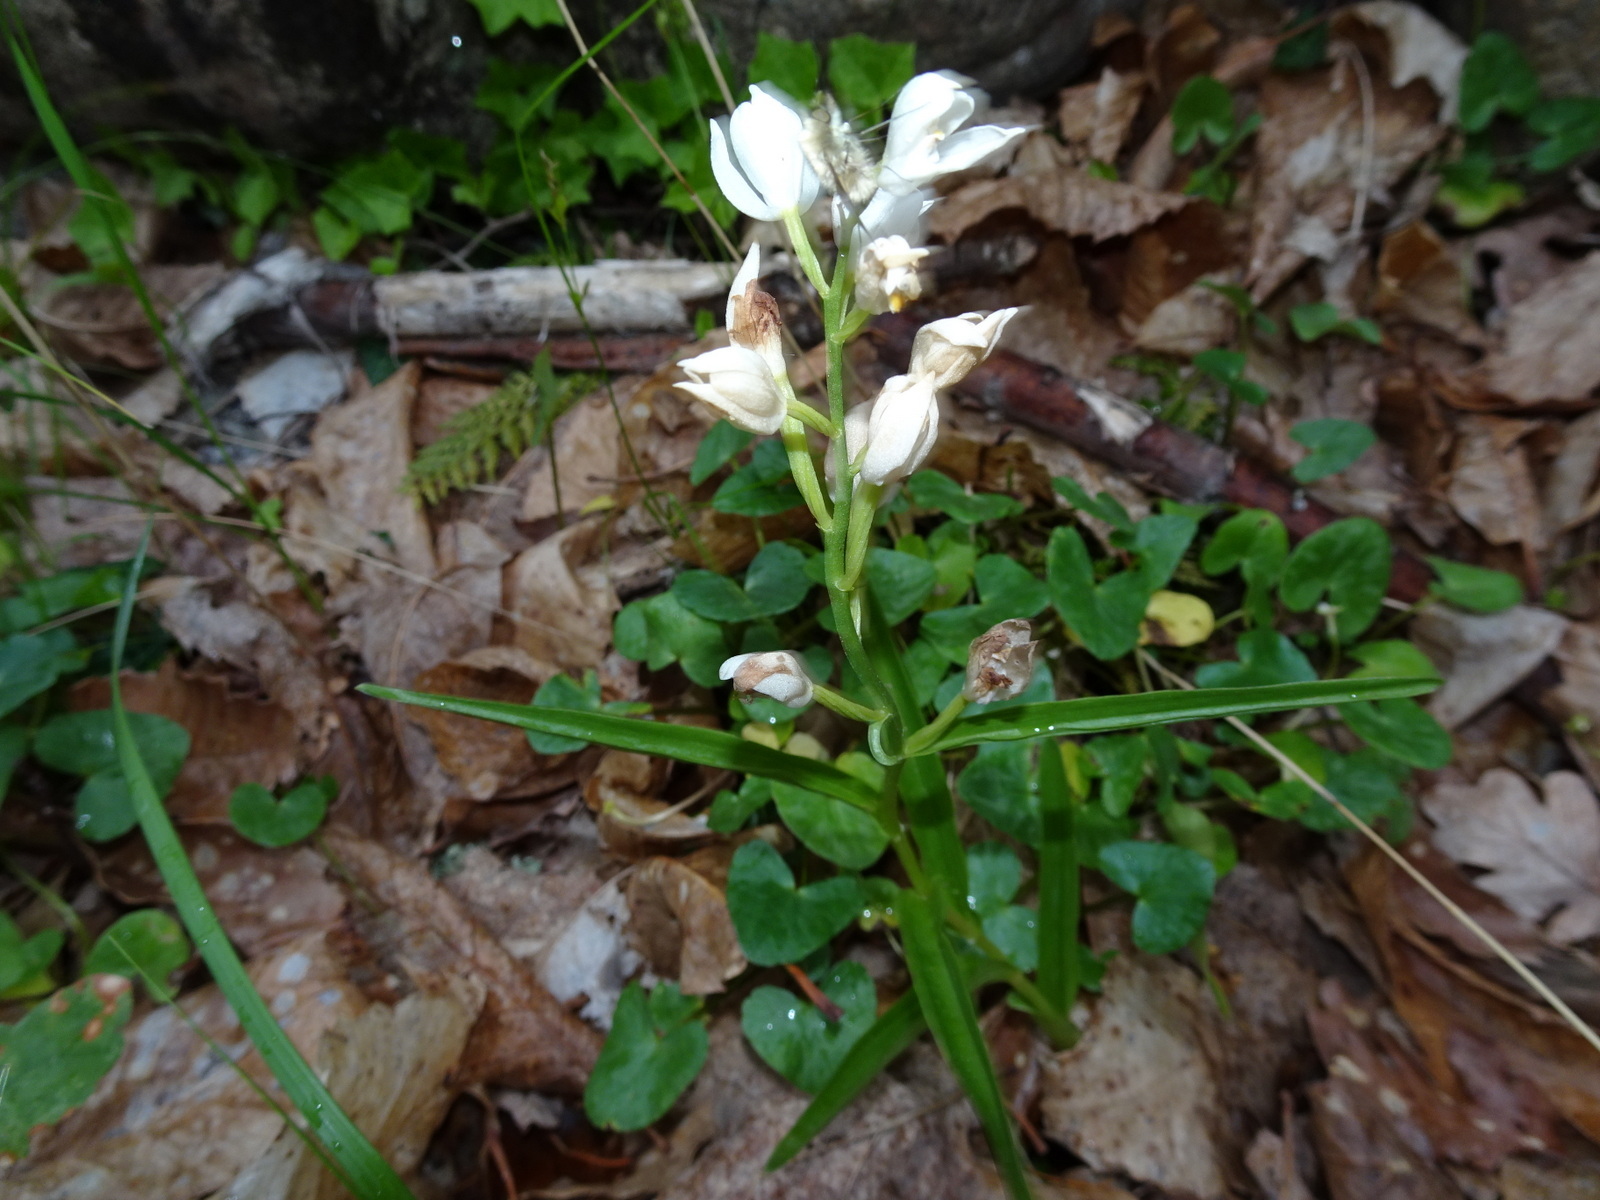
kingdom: Plantae
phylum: Tracheophyta
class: Liliopsida
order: Asparagales
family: Orchidaceae
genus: Cephalanthera
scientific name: Cephalanthera longifolia
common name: Narrow-leaved helleborine
